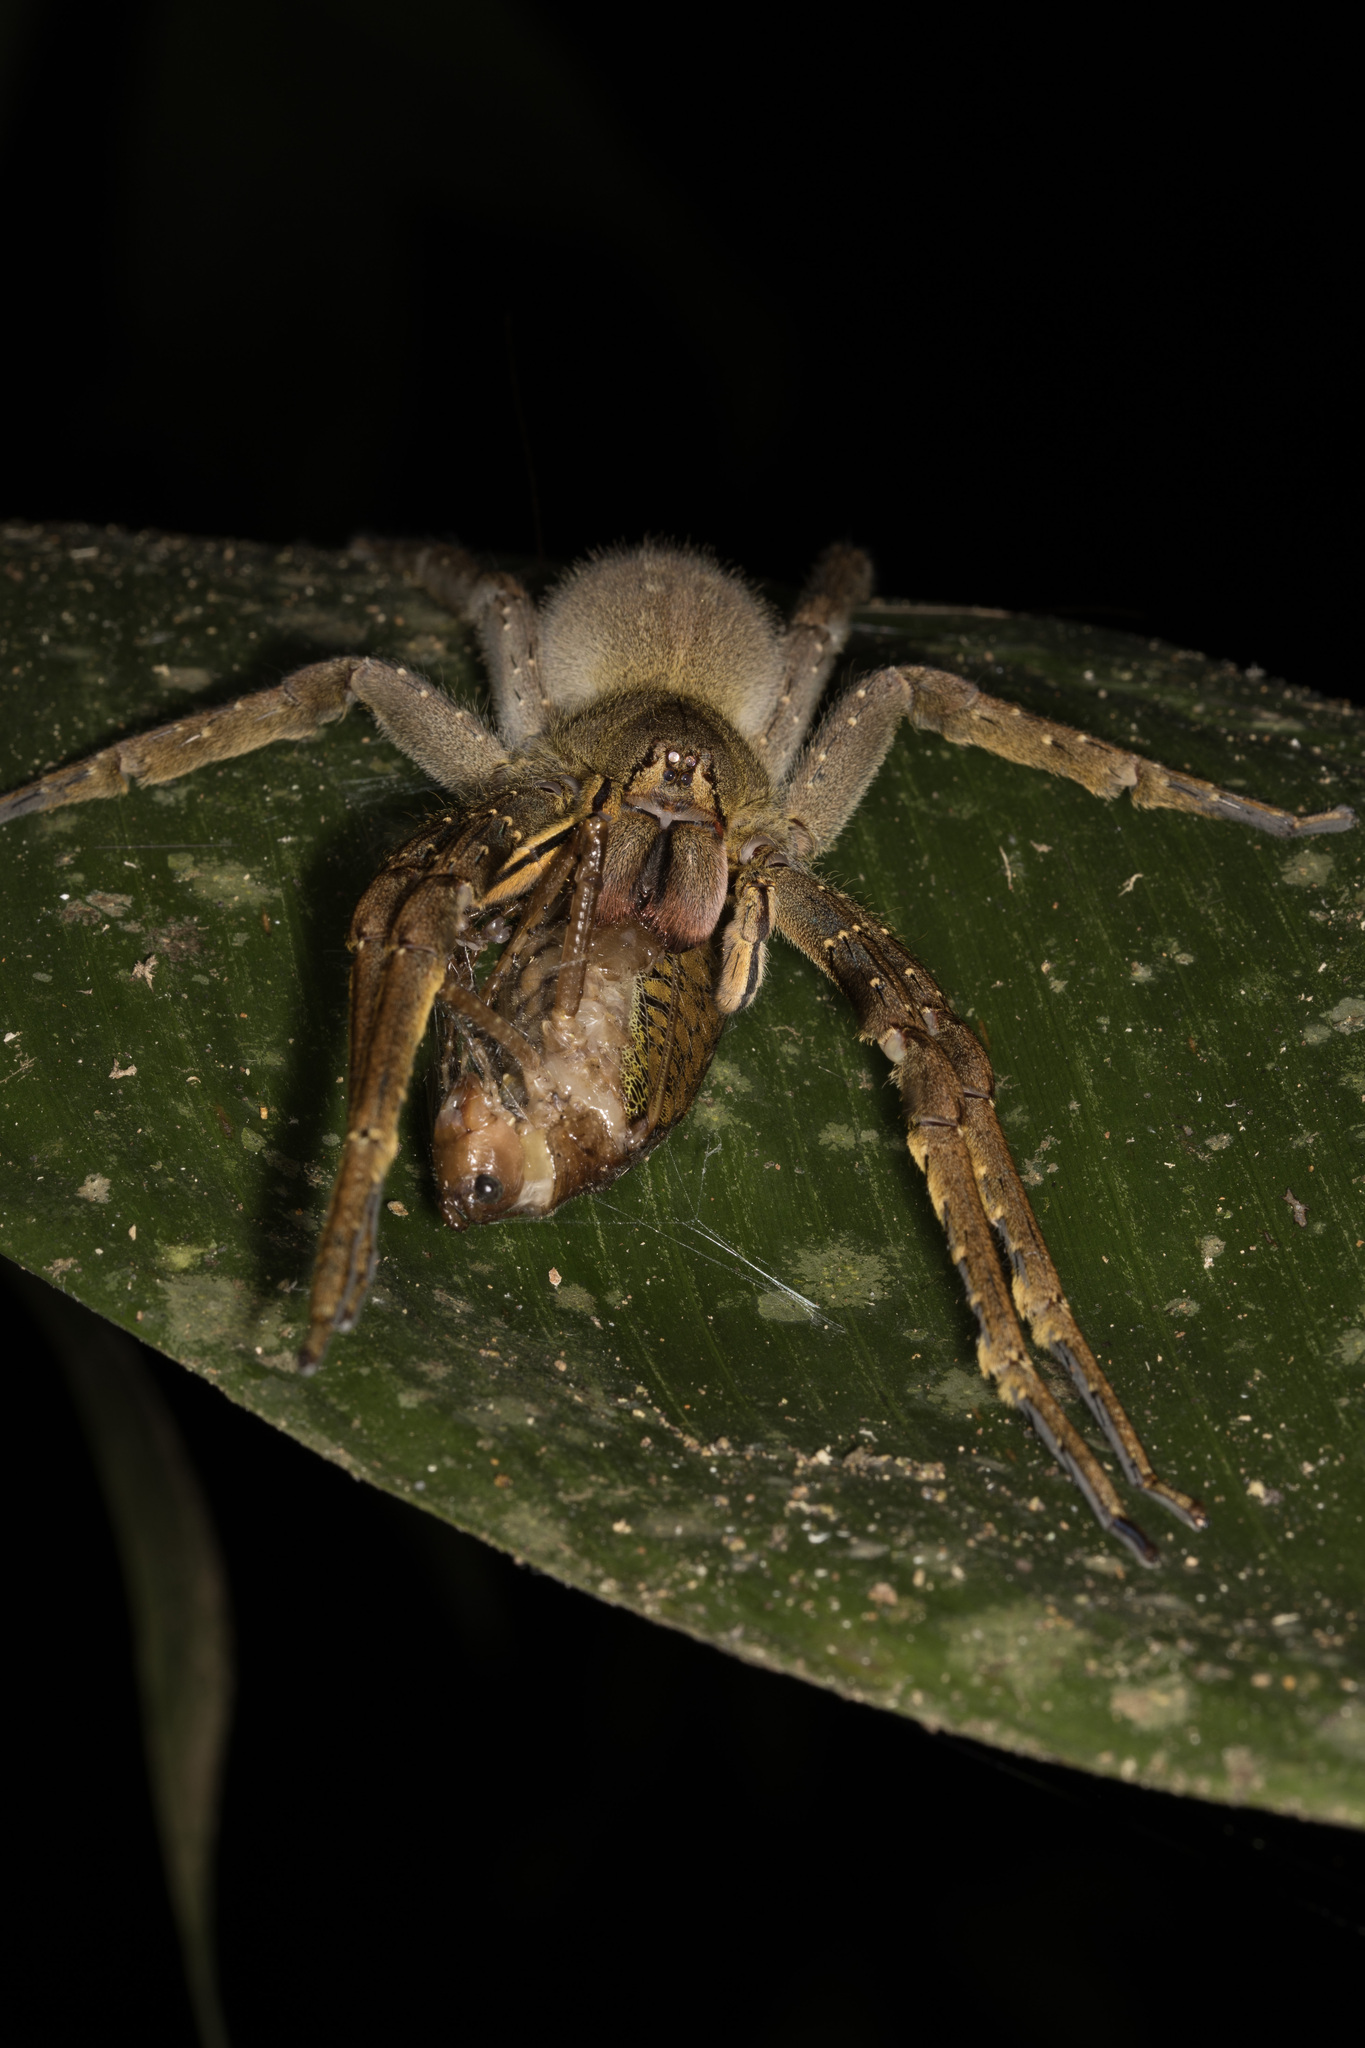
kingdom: Animalia
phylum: Arthropoda
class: Arachnida
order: Araneae
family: Ctenidae
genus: Phoneutria
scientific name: Phoneutria fera
